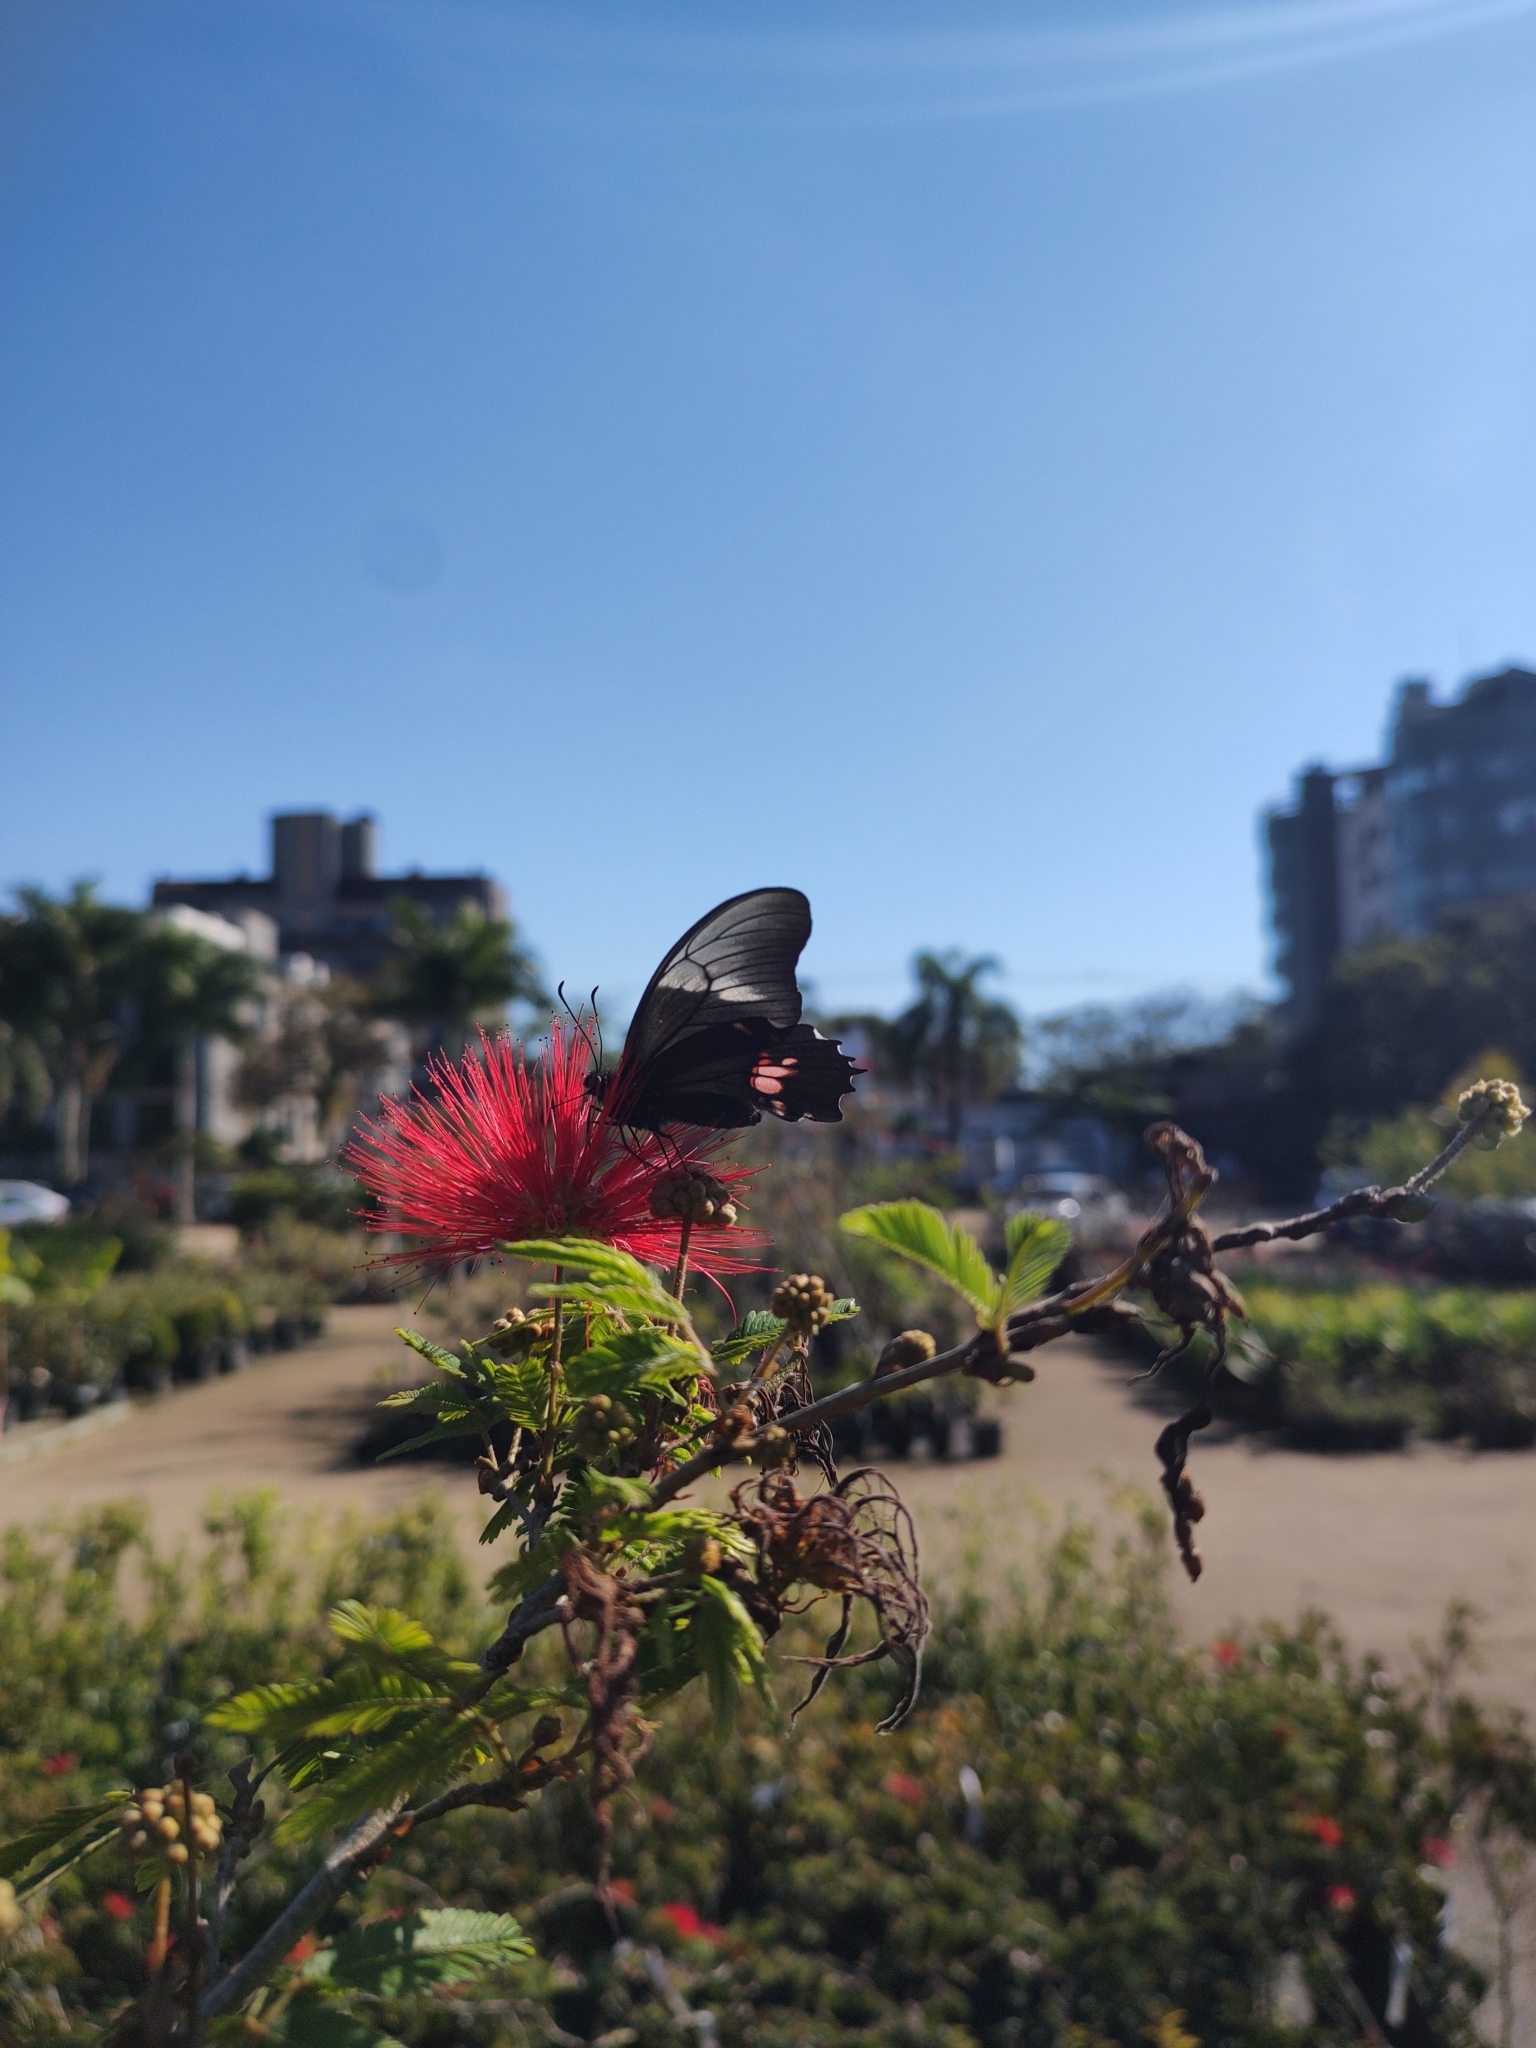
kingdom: Animalia
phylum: Arthropoda
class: Insecta
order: Lepidoptera
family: Papilionidae
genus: Papilio
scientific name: Papilio anchisiades
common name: Idaes swallowtail
